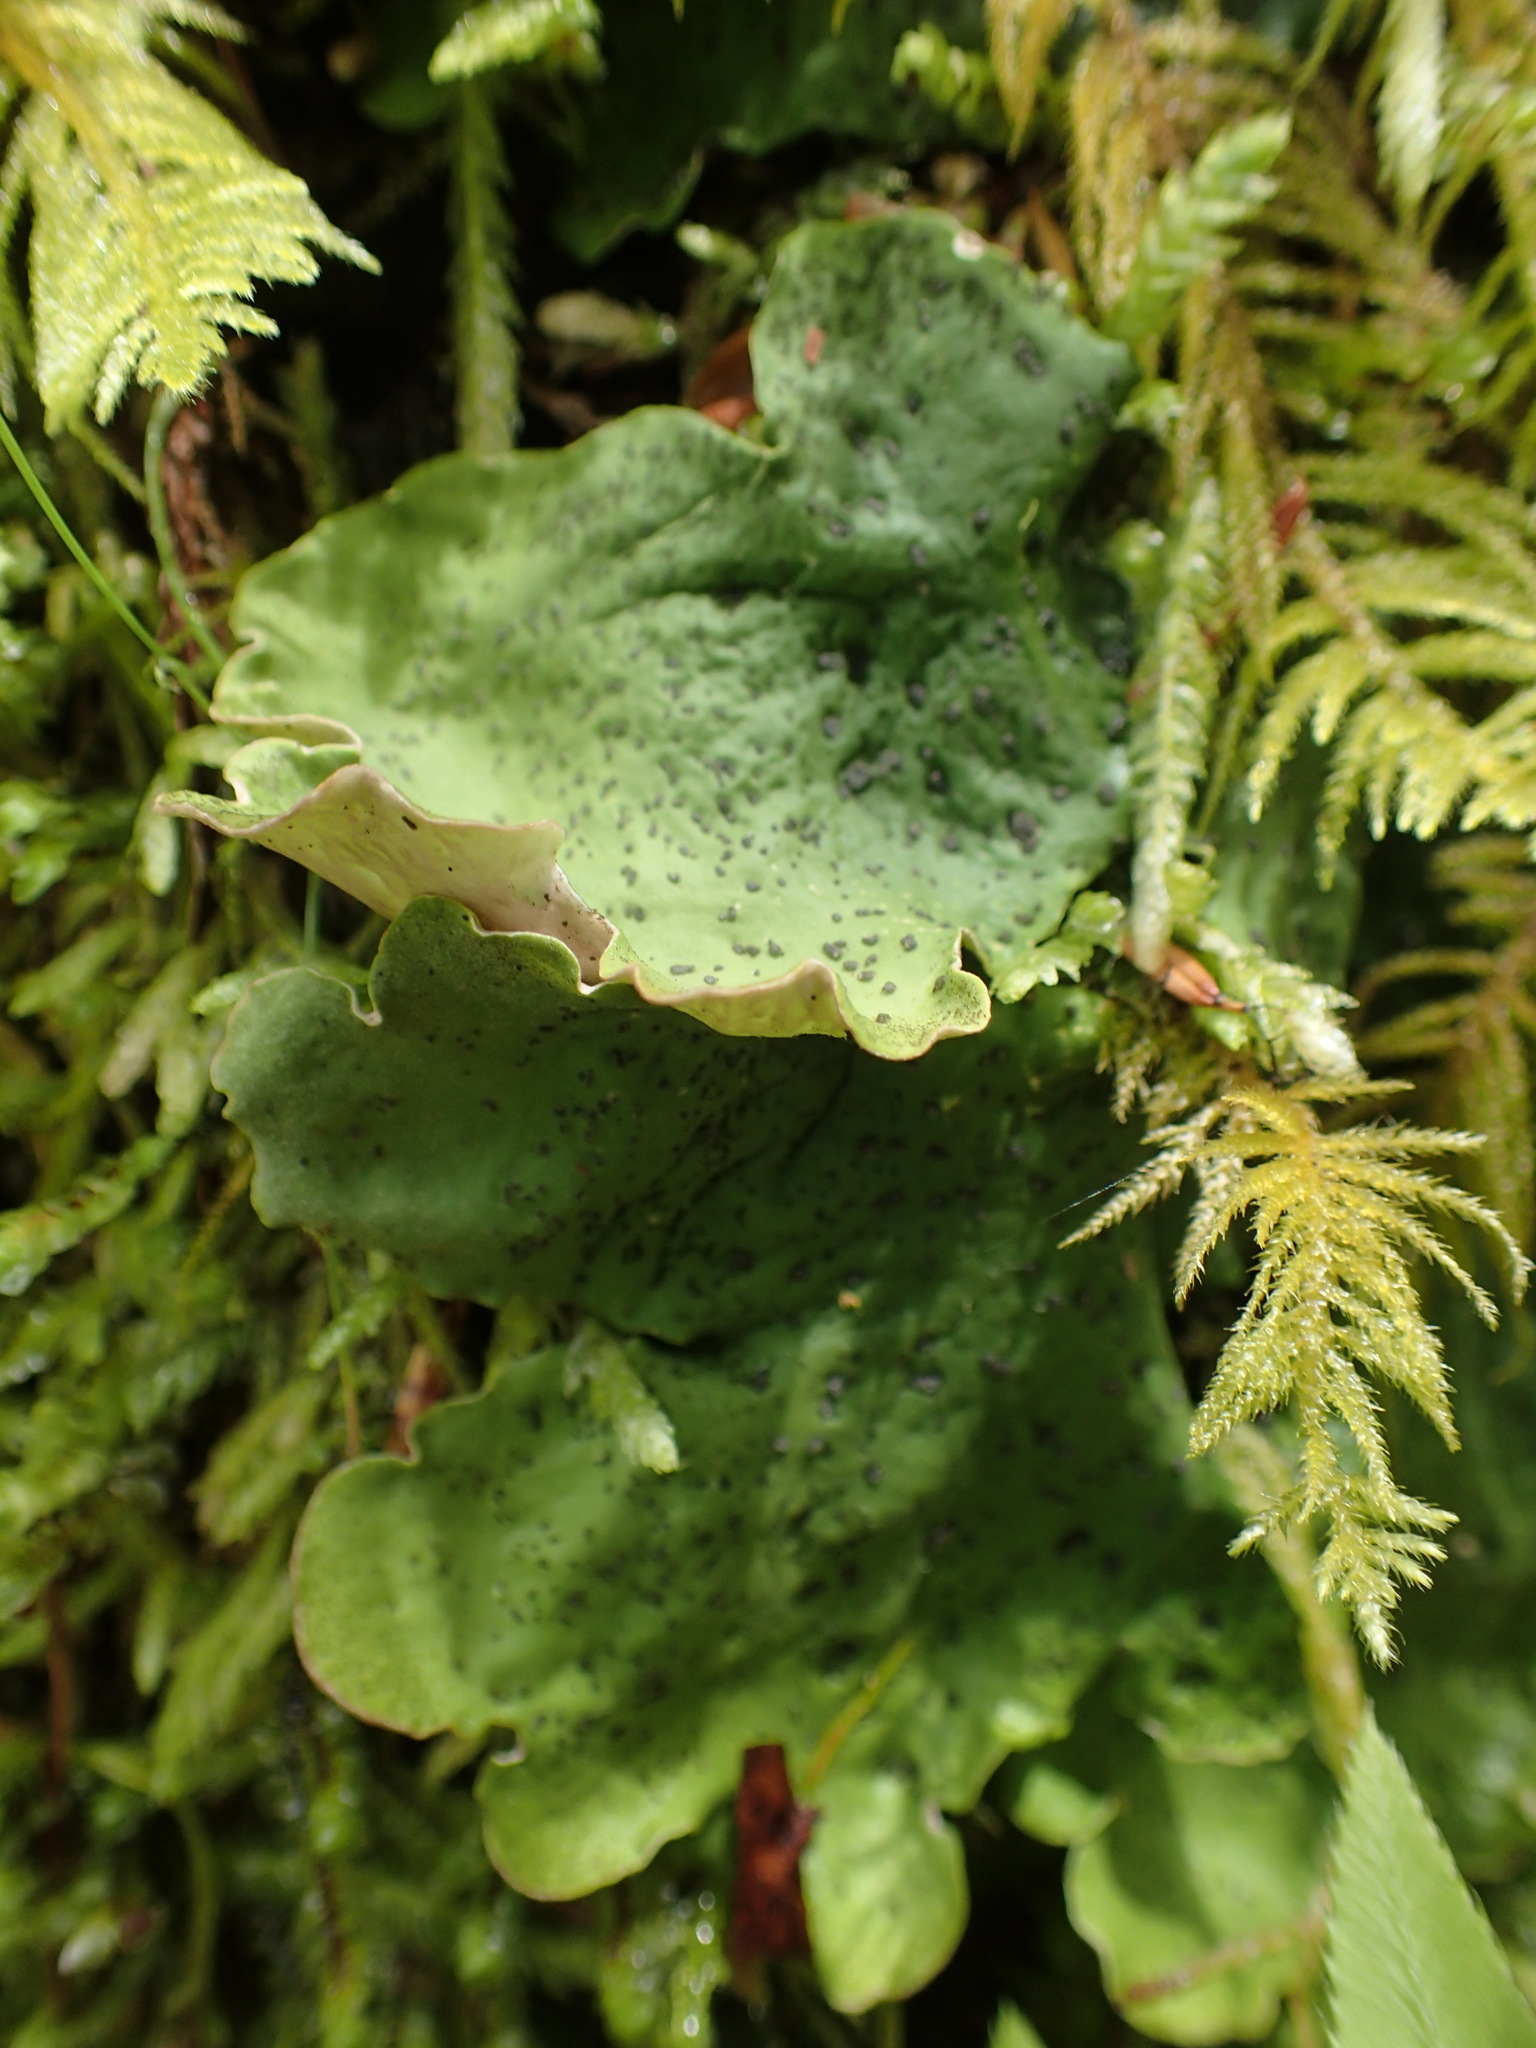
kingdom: Fungi
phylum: Ascomycota
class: Lecanoromycetes
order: Peltigerales
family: Peltigeraceae
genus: Peltigera
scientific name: Peltigera aphthosa
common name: Common freckle pelt lichen
